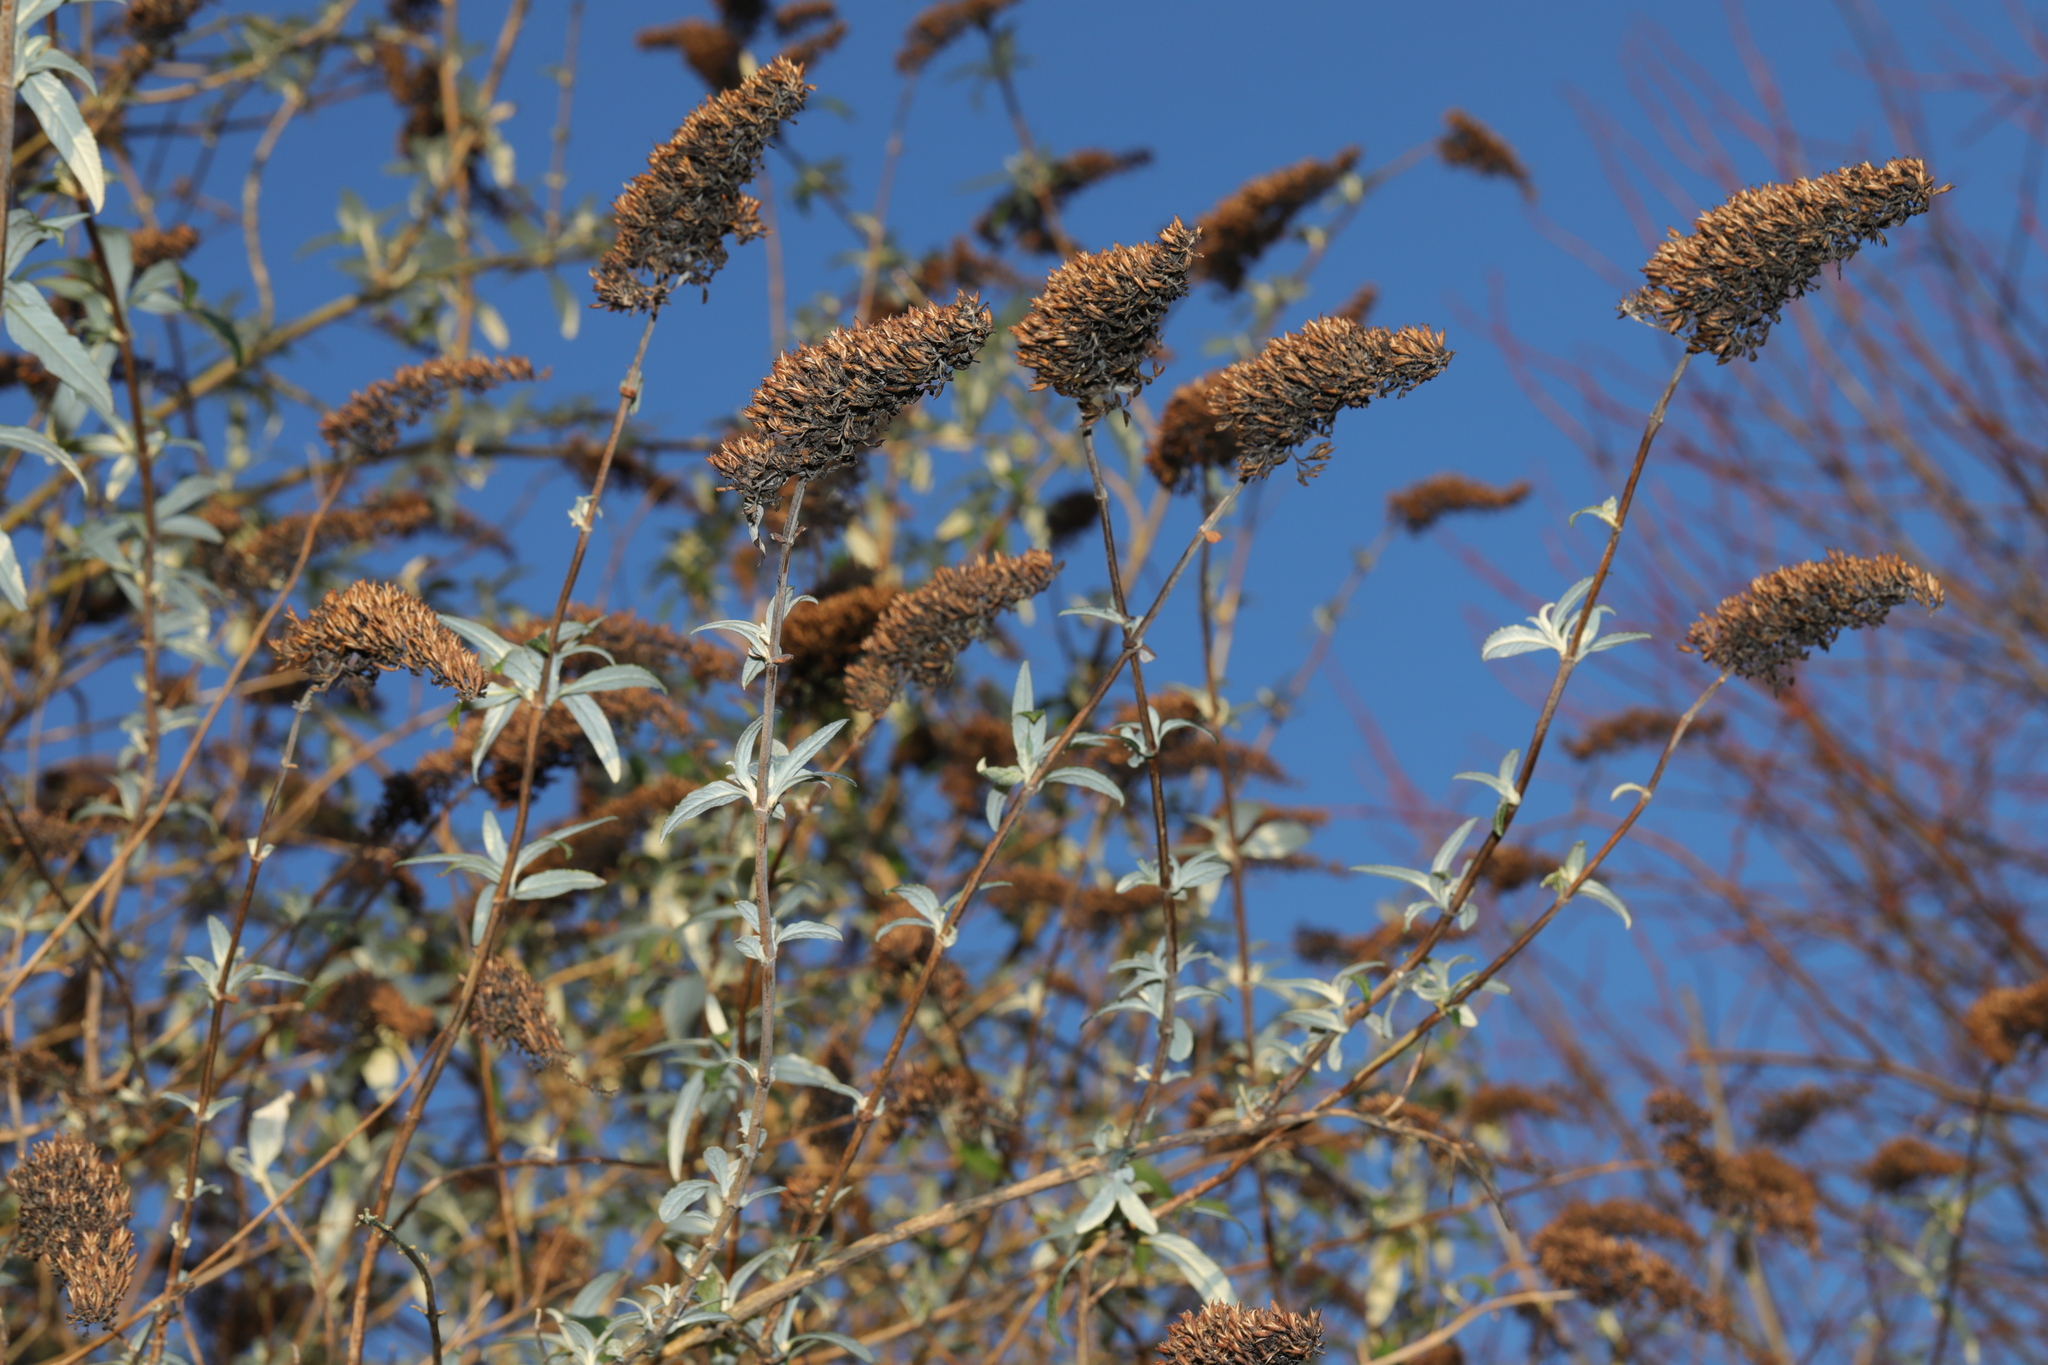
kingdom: Plantae
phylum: Tracheophyta
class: Magnoliopsida
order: Lamiales
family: Scrophulariaceae
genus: Buddleja
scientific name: Buddleja davidii
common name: Butterfly-bush
